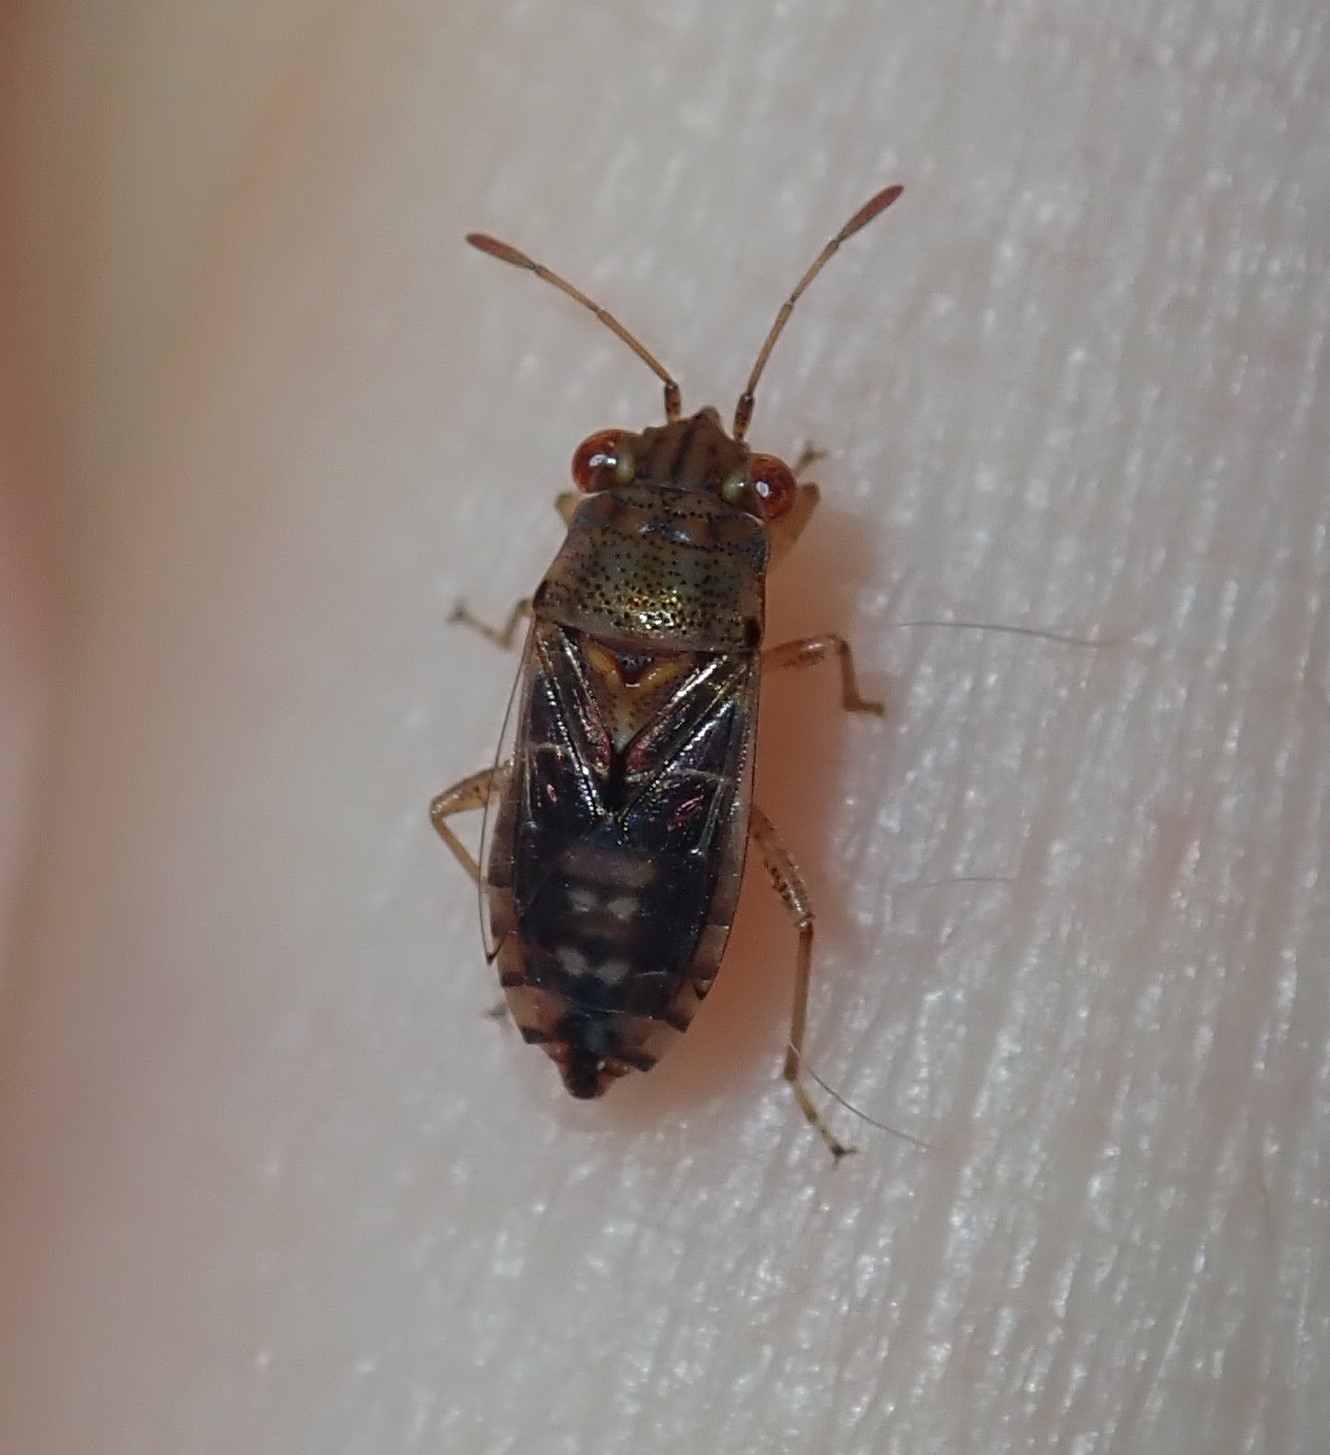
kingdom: Animalia
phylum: Arthropoda
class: Insecta
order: Hemiptera
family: Geocoridae
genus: Germalus
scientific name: Germalus victoriae
